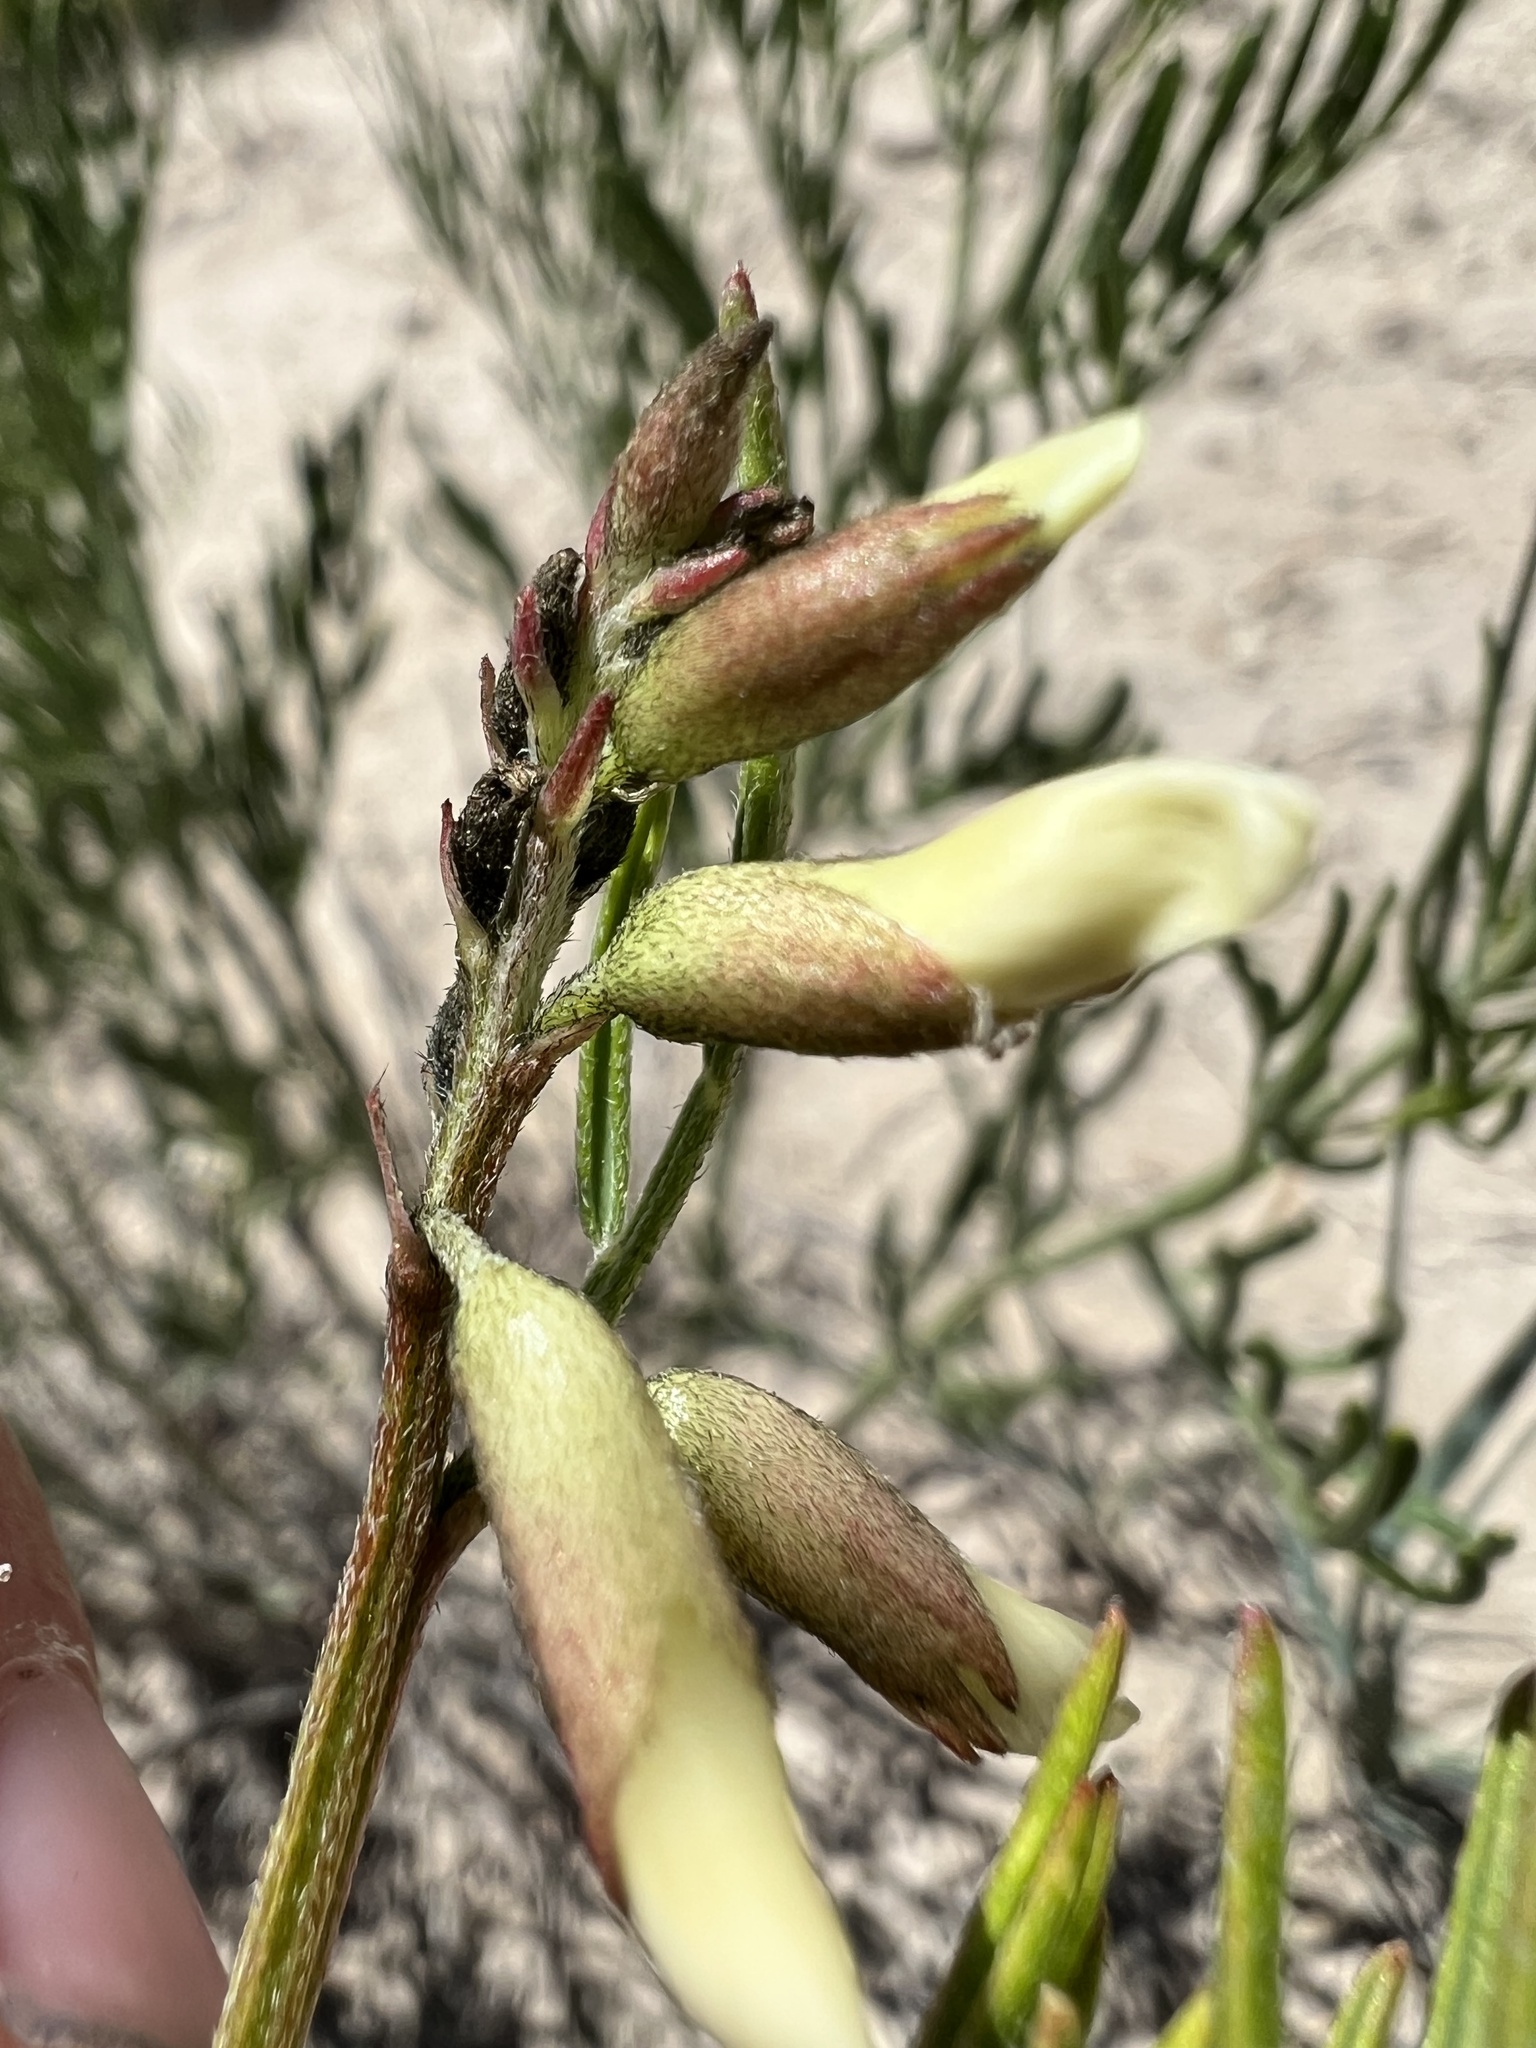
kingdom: Plantae
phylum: Tracheophyta
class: Magnoliopsida
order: Fabales
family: Fabaceae
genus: Astragalus
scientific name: Astragalus osterhoutii
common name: Osterhout's milk-vetch
